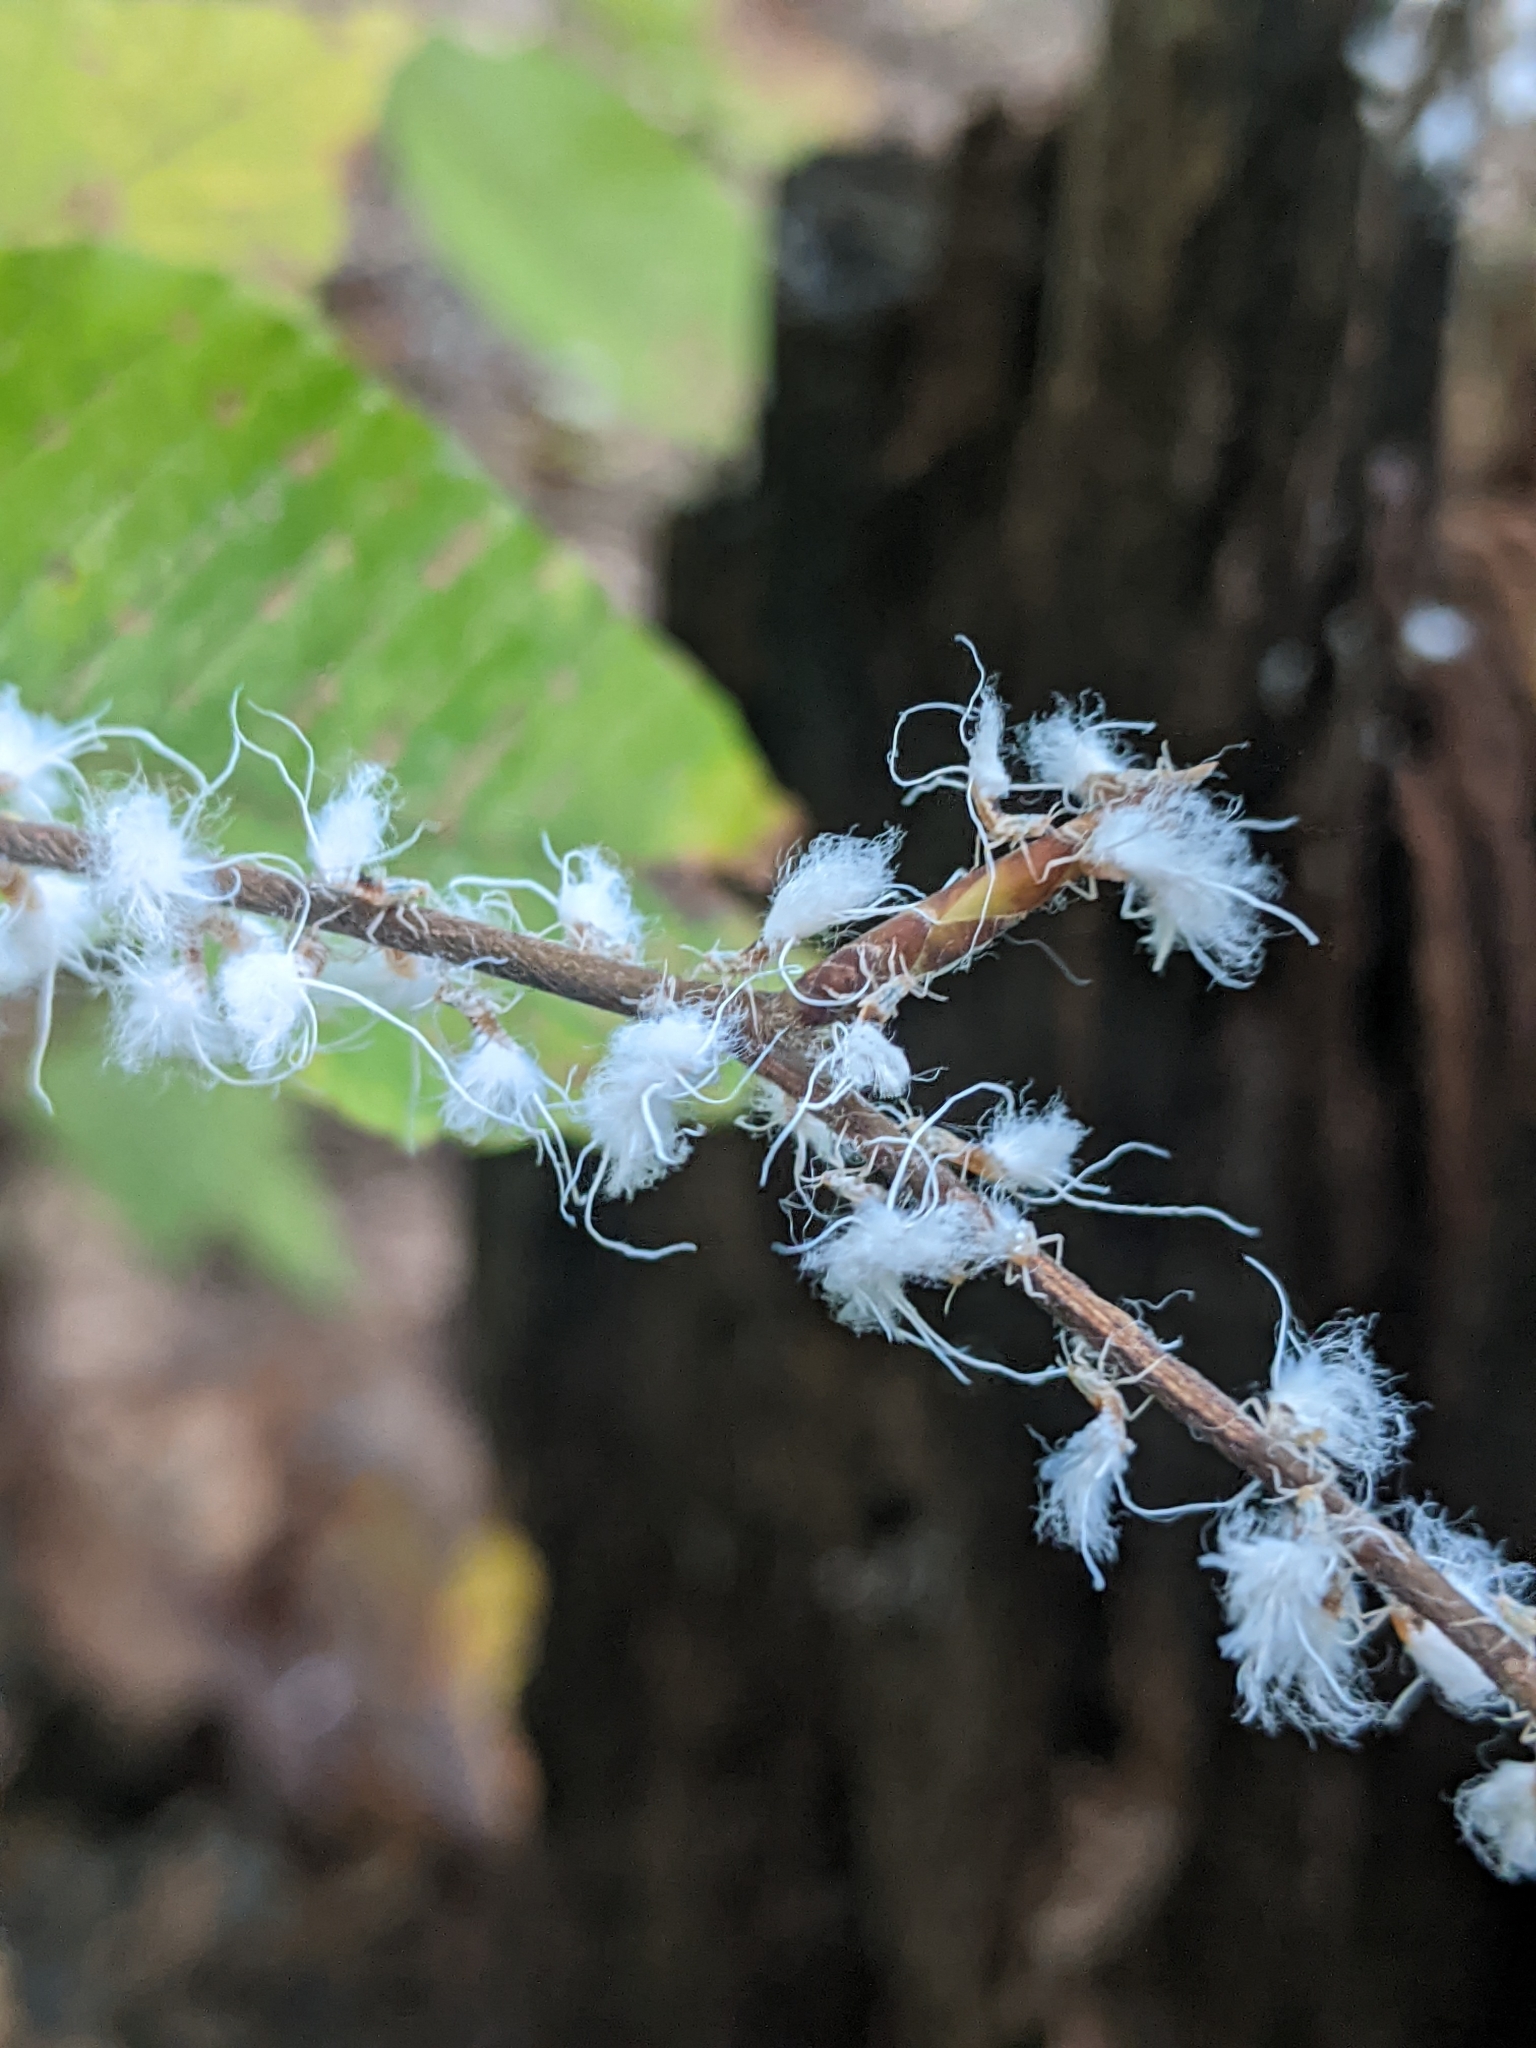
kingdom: Animalia
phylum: Arthropoda
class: Insecta
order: Hemiptera
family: Aphididae
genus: Grylloprociphilus
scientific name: Grylloprociphilus imbricator
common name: Beech blight aphid
